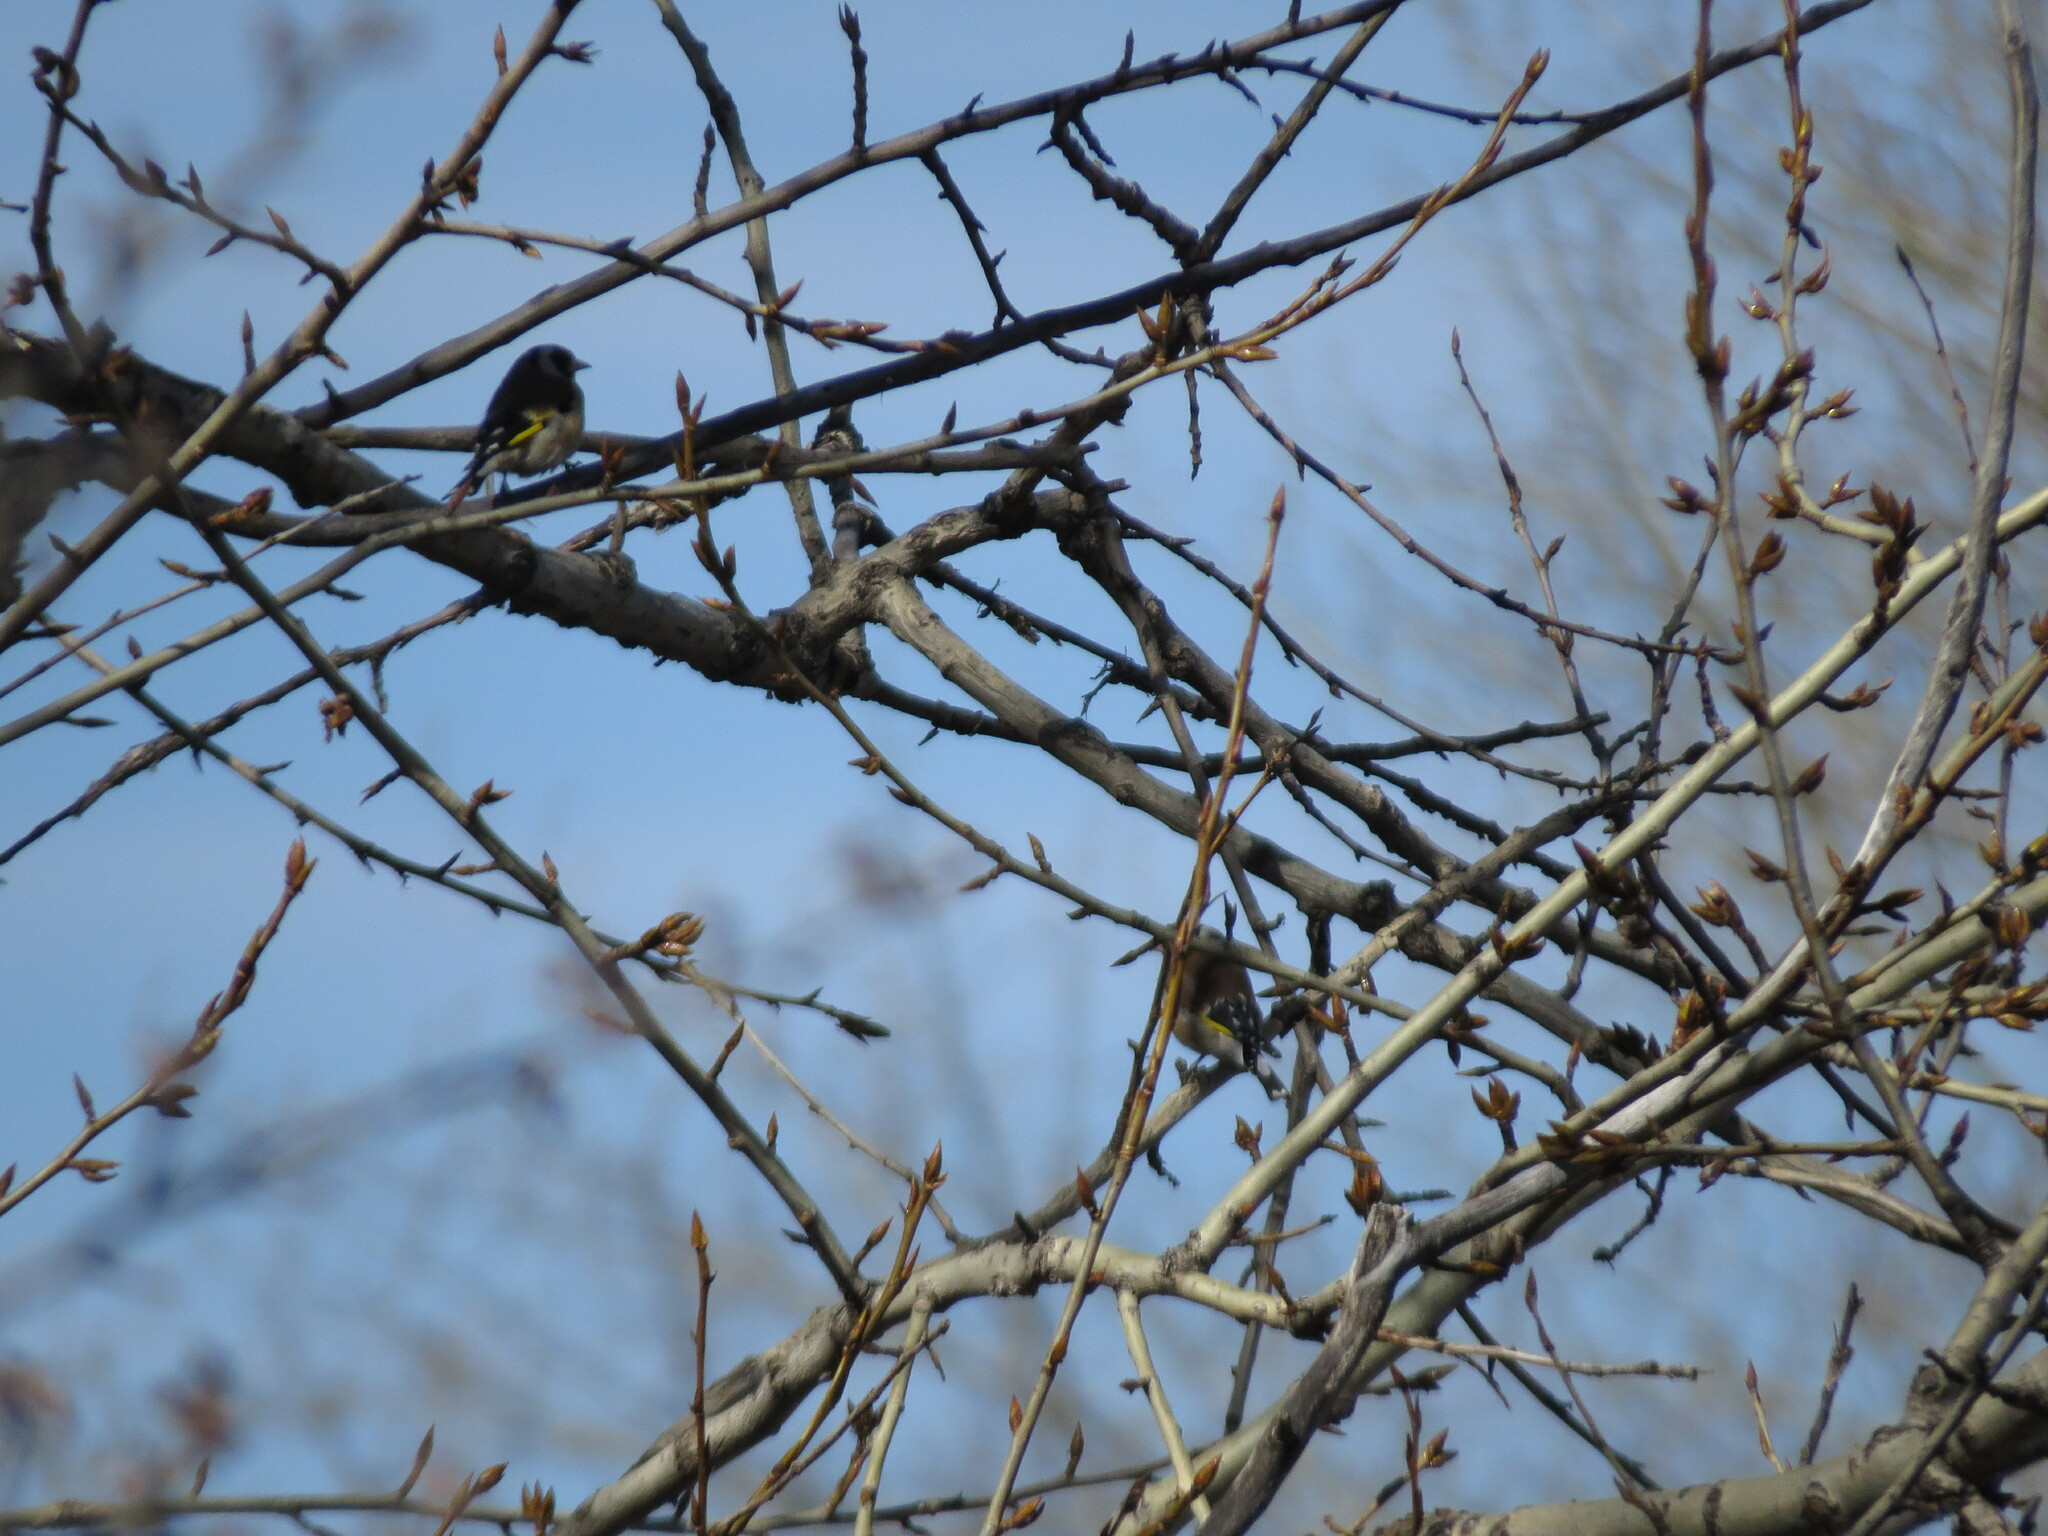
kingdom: Animalia
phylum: Chordata
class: Aves
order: Passeriformes
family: Fringillidae
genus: Carduelis
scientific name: Carduelis carduelis
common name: European goldfinch
